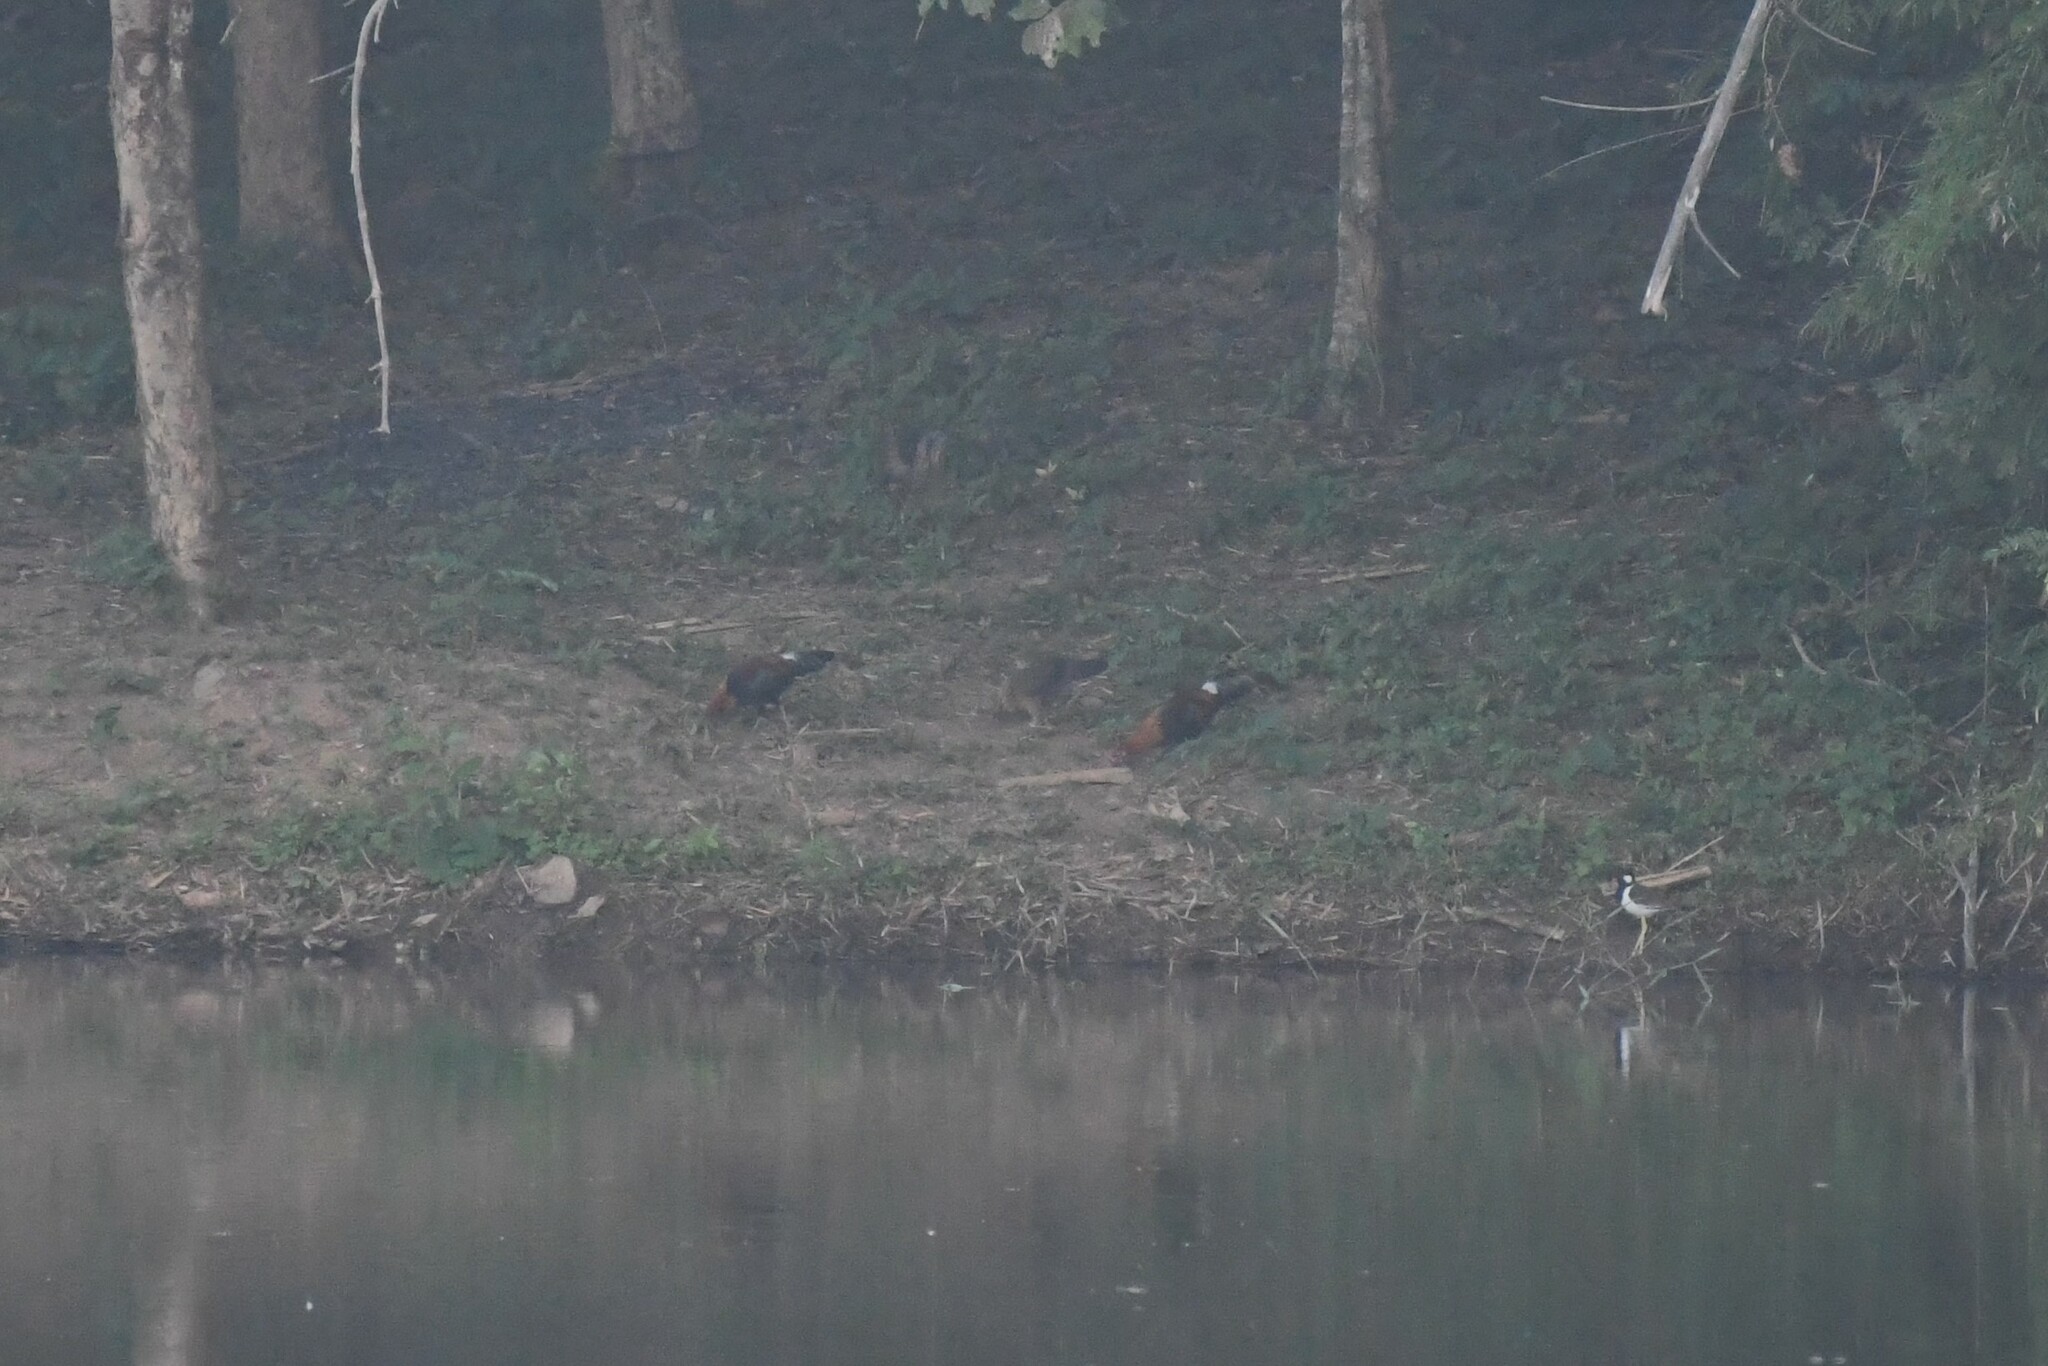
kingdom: Animalia
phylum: Chordata
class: Aves
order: Galliformes
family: Phasianidae
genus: Gallus
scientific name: Gallus gallus
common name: Red junglefowl
